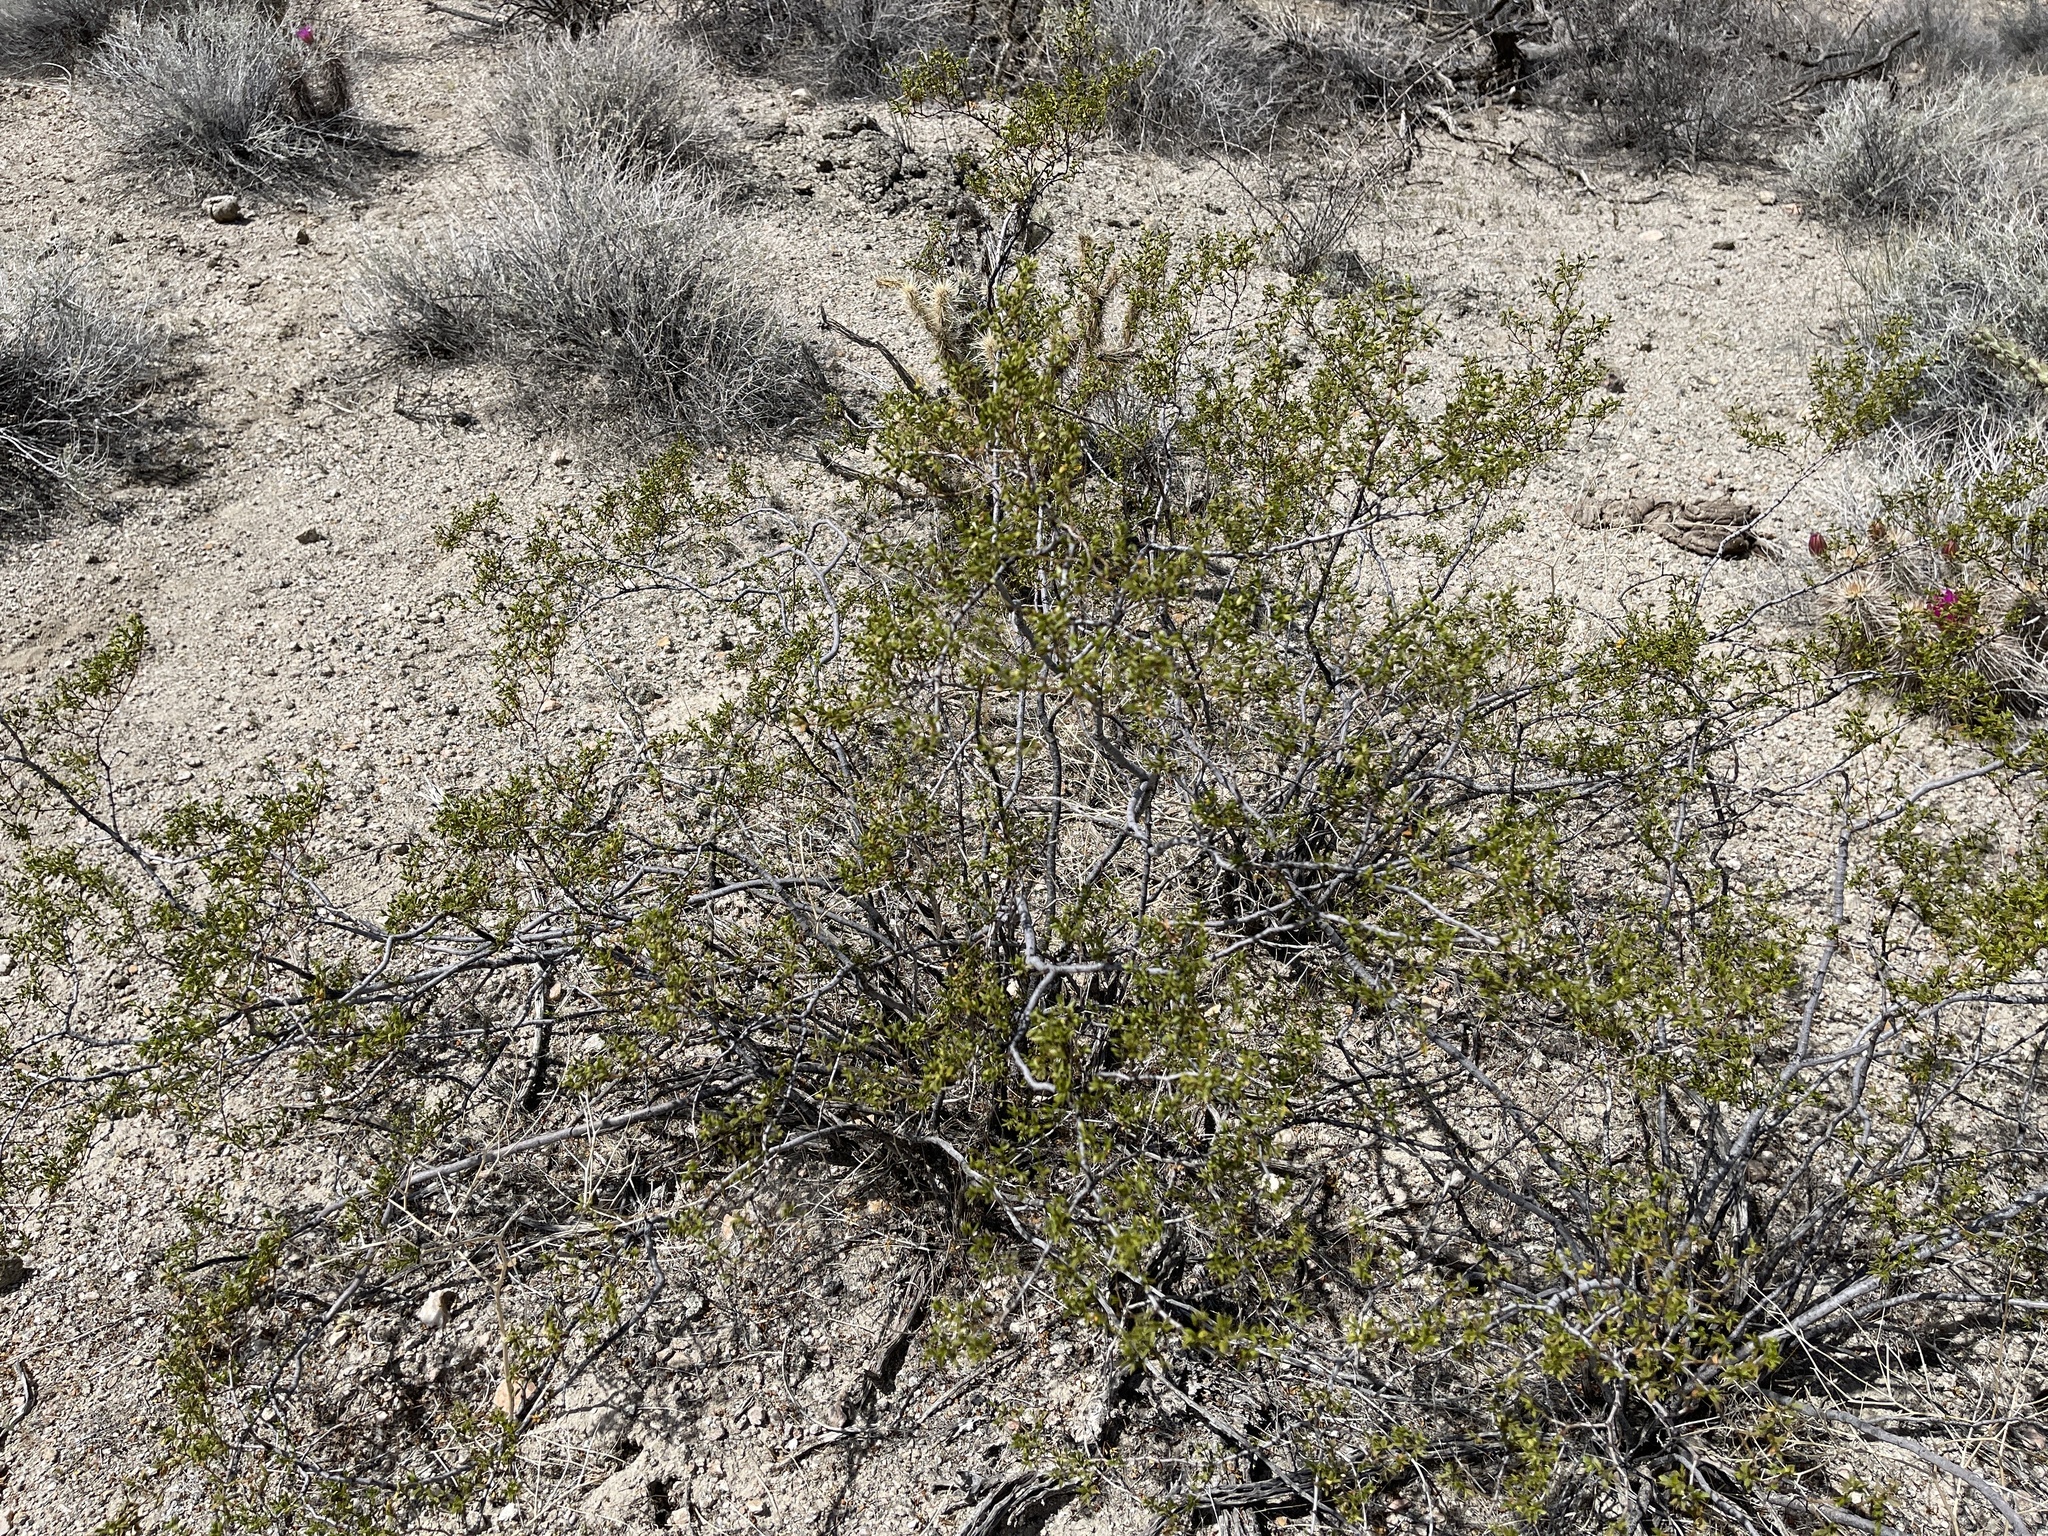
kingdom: Plantae
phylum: Tracheophyta
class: Magnoliopsida
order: Zygophyllales
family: Zygophyllaceae
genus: Larrea
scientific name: Larrea tridentata
